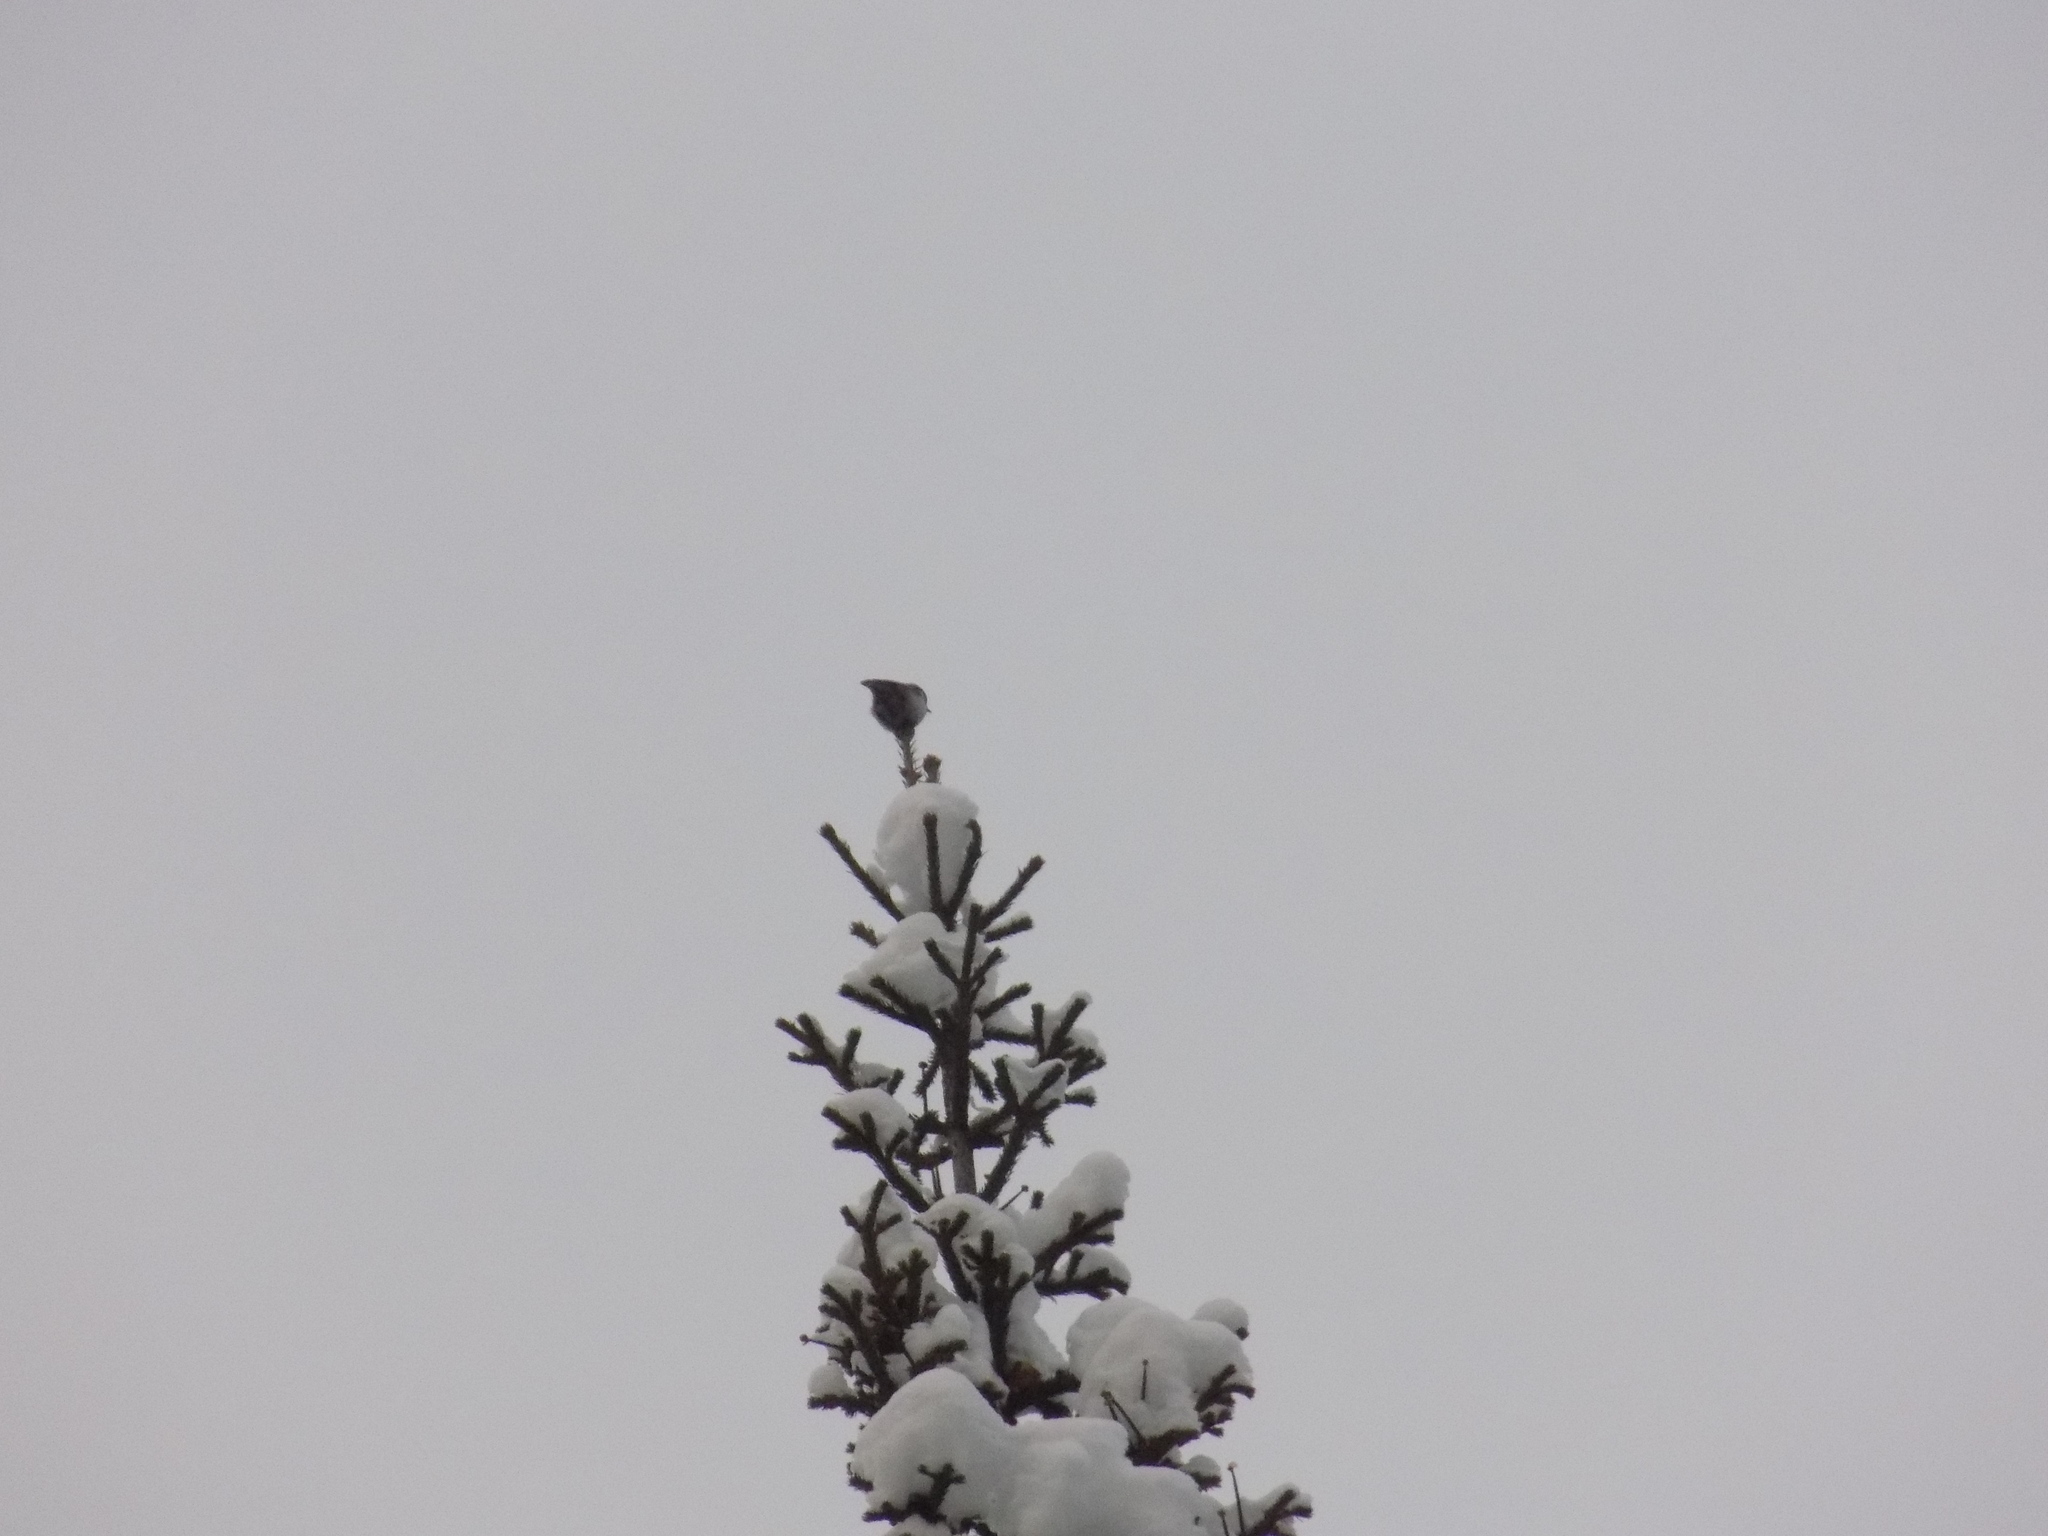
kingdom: Animalia
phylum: Chordata
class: Aves
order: Passeriformes
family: Sittidae
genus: Sitta
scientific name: Sitta europaea
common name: Eurasian nuthatch
